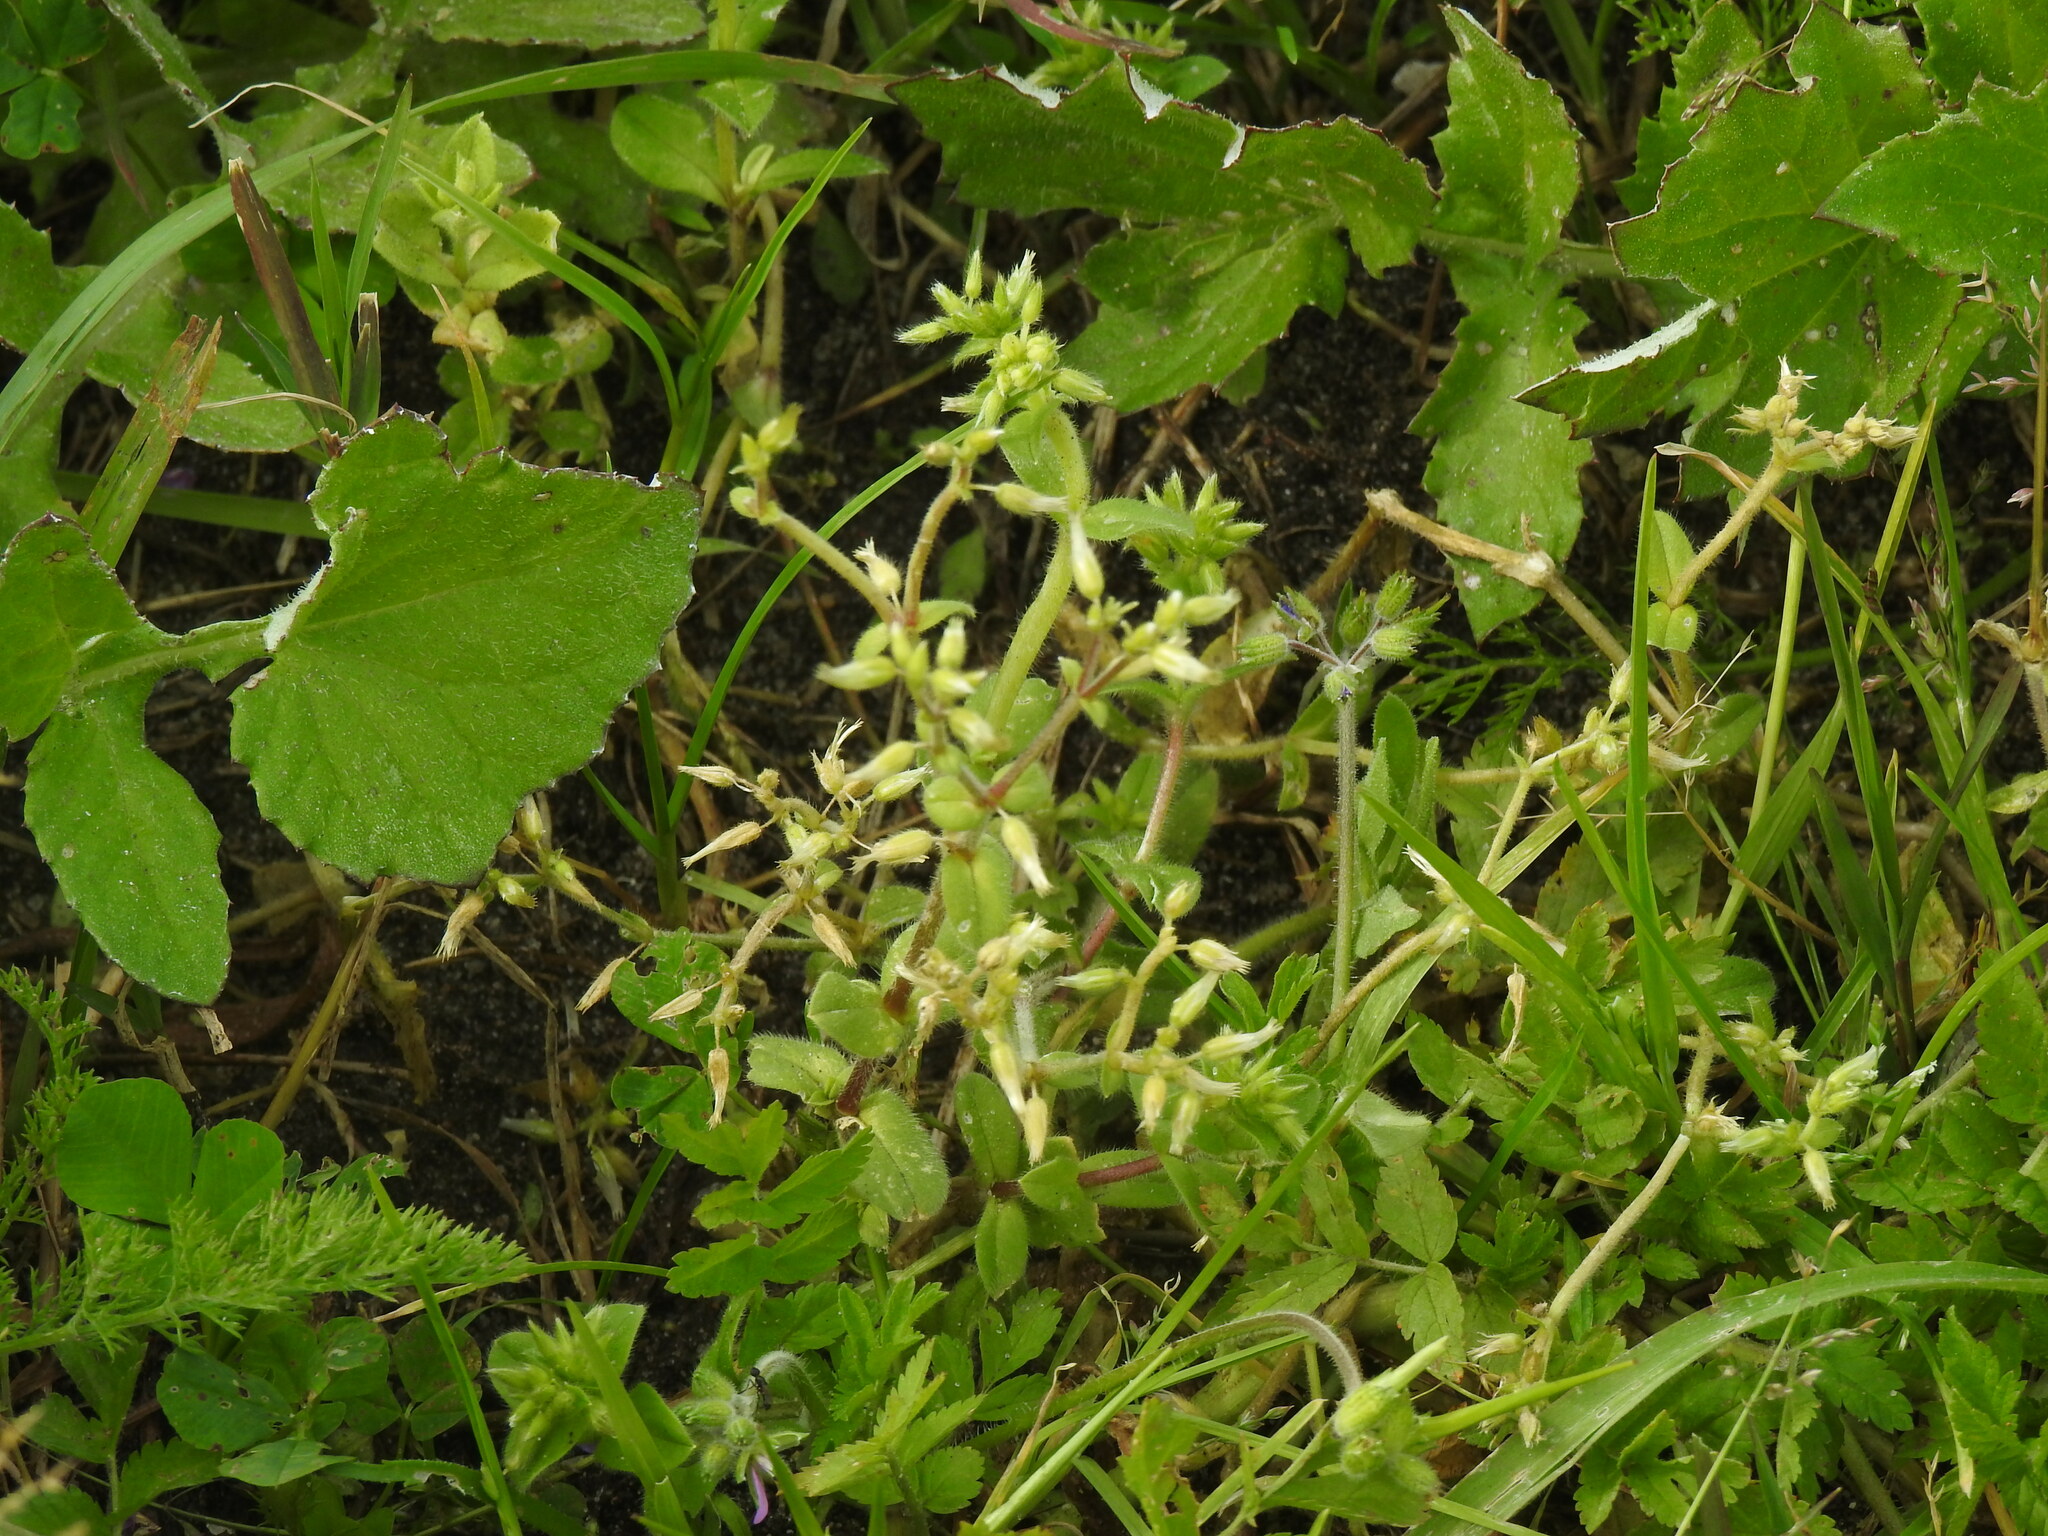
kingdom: Plantae
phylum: Tracheophyta
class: Magnoliopsida
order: Caryophyllales
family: Caryophyllaceae
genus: Cerastium
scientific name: Cerastium glomeratum
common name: Sticky chickweed
